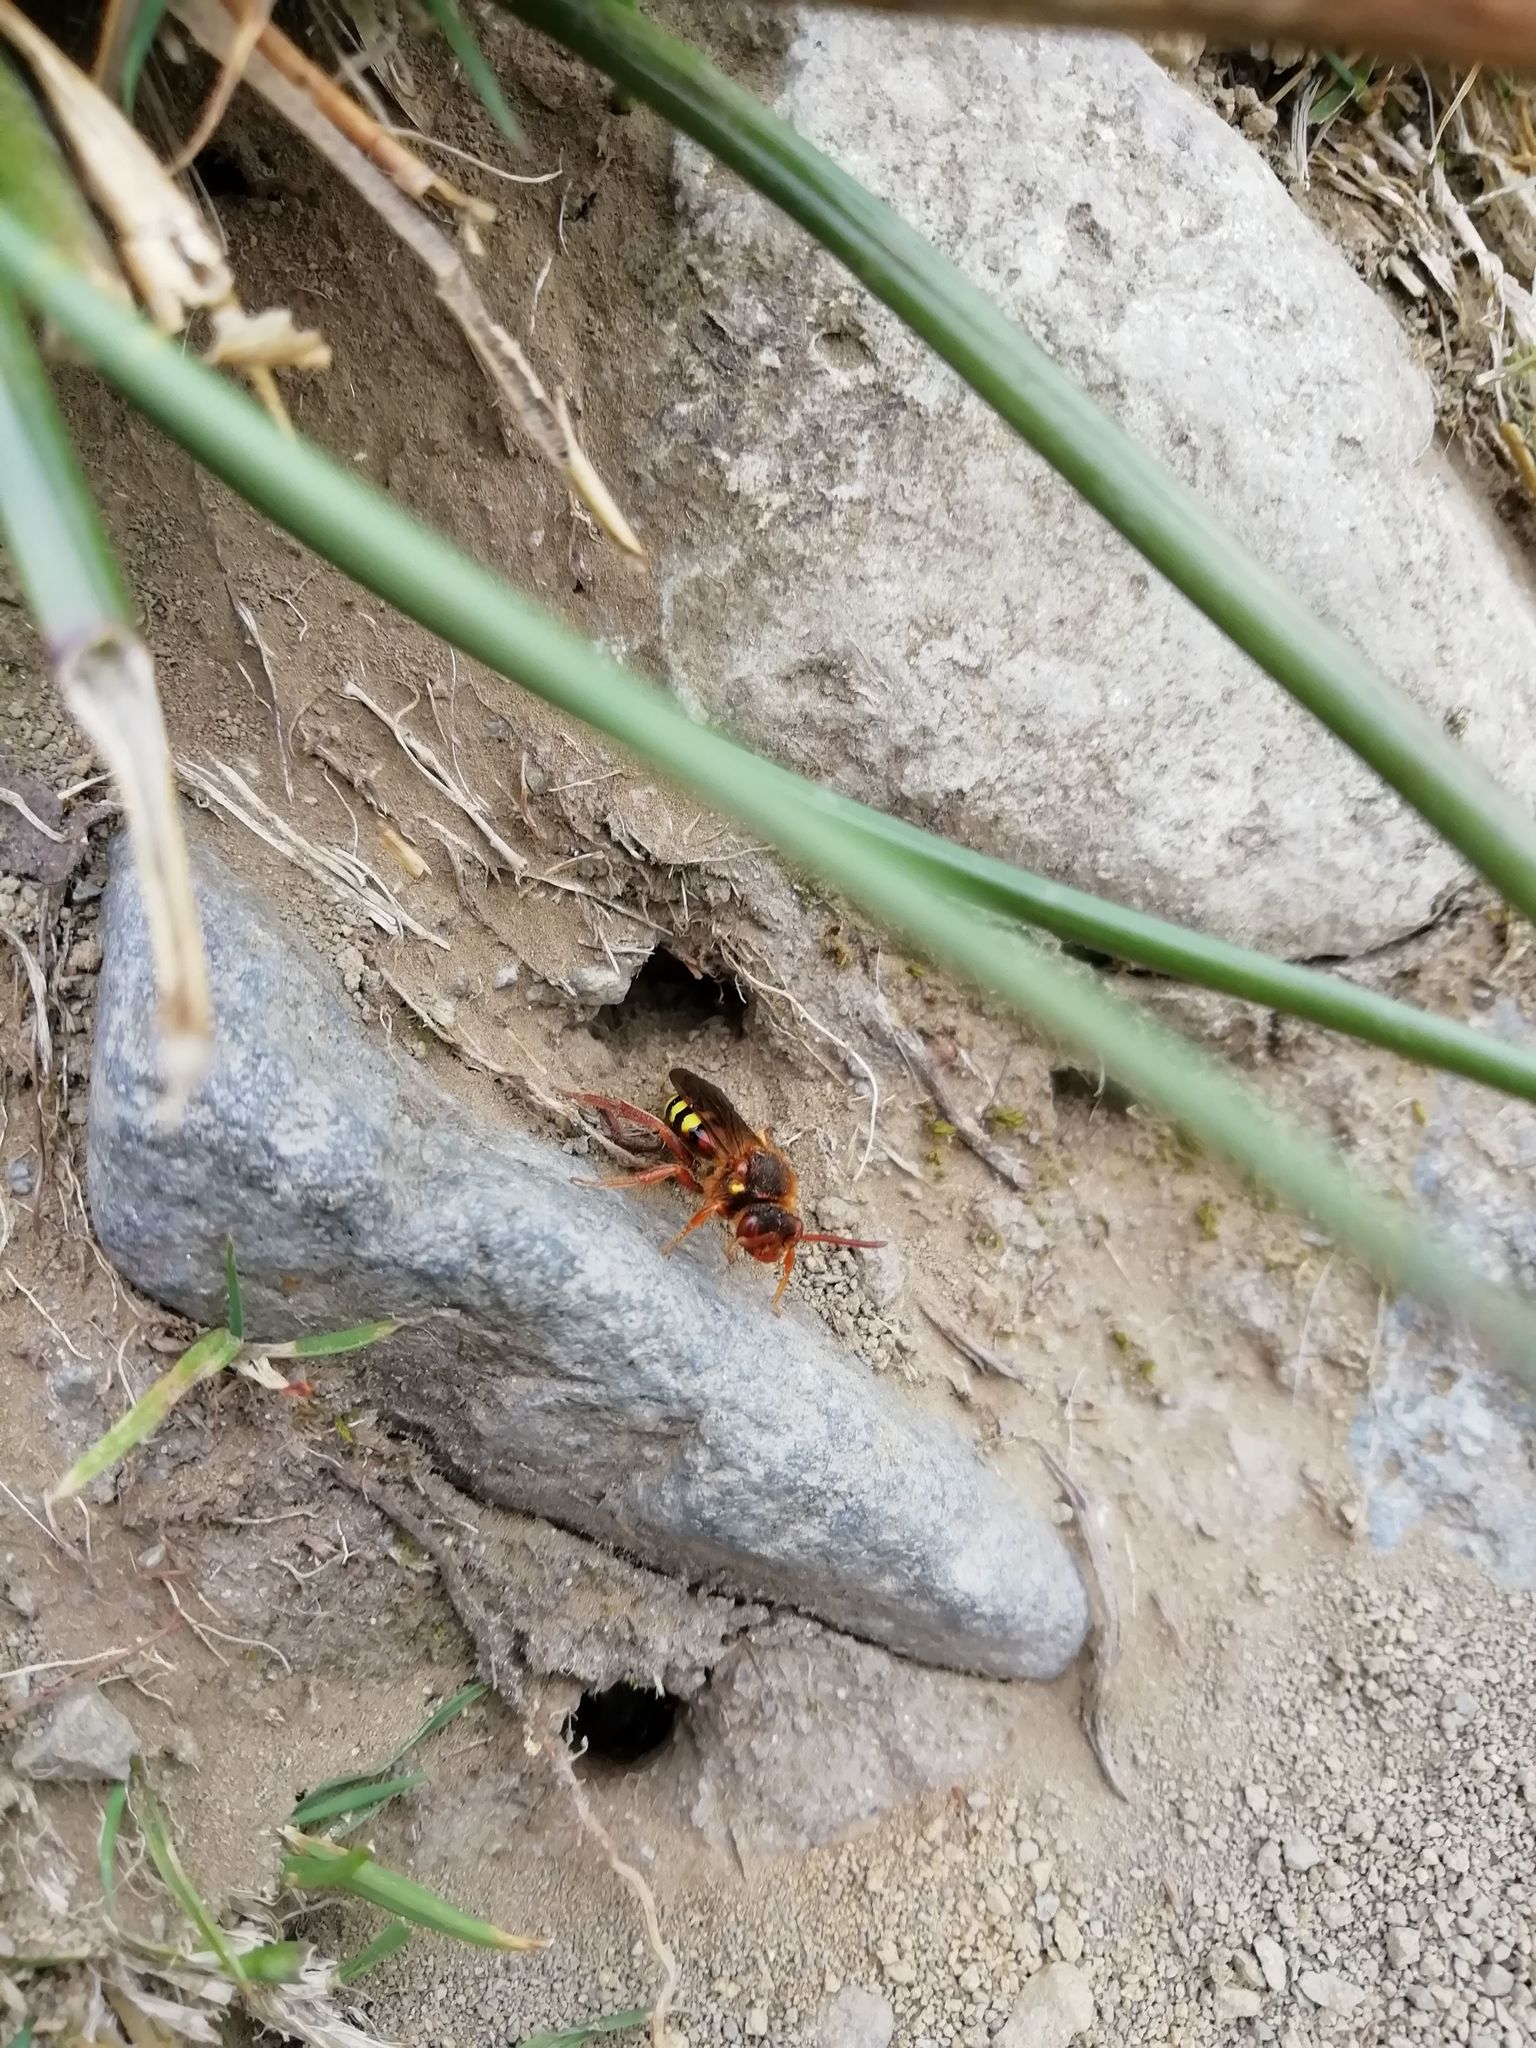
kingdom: Animalia
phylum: Arthropoda
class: Insecta
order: Hymenoptera
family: Apidae
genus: Nomada
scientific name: Nomada lathburiana
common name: Lathbury's nomad bee
